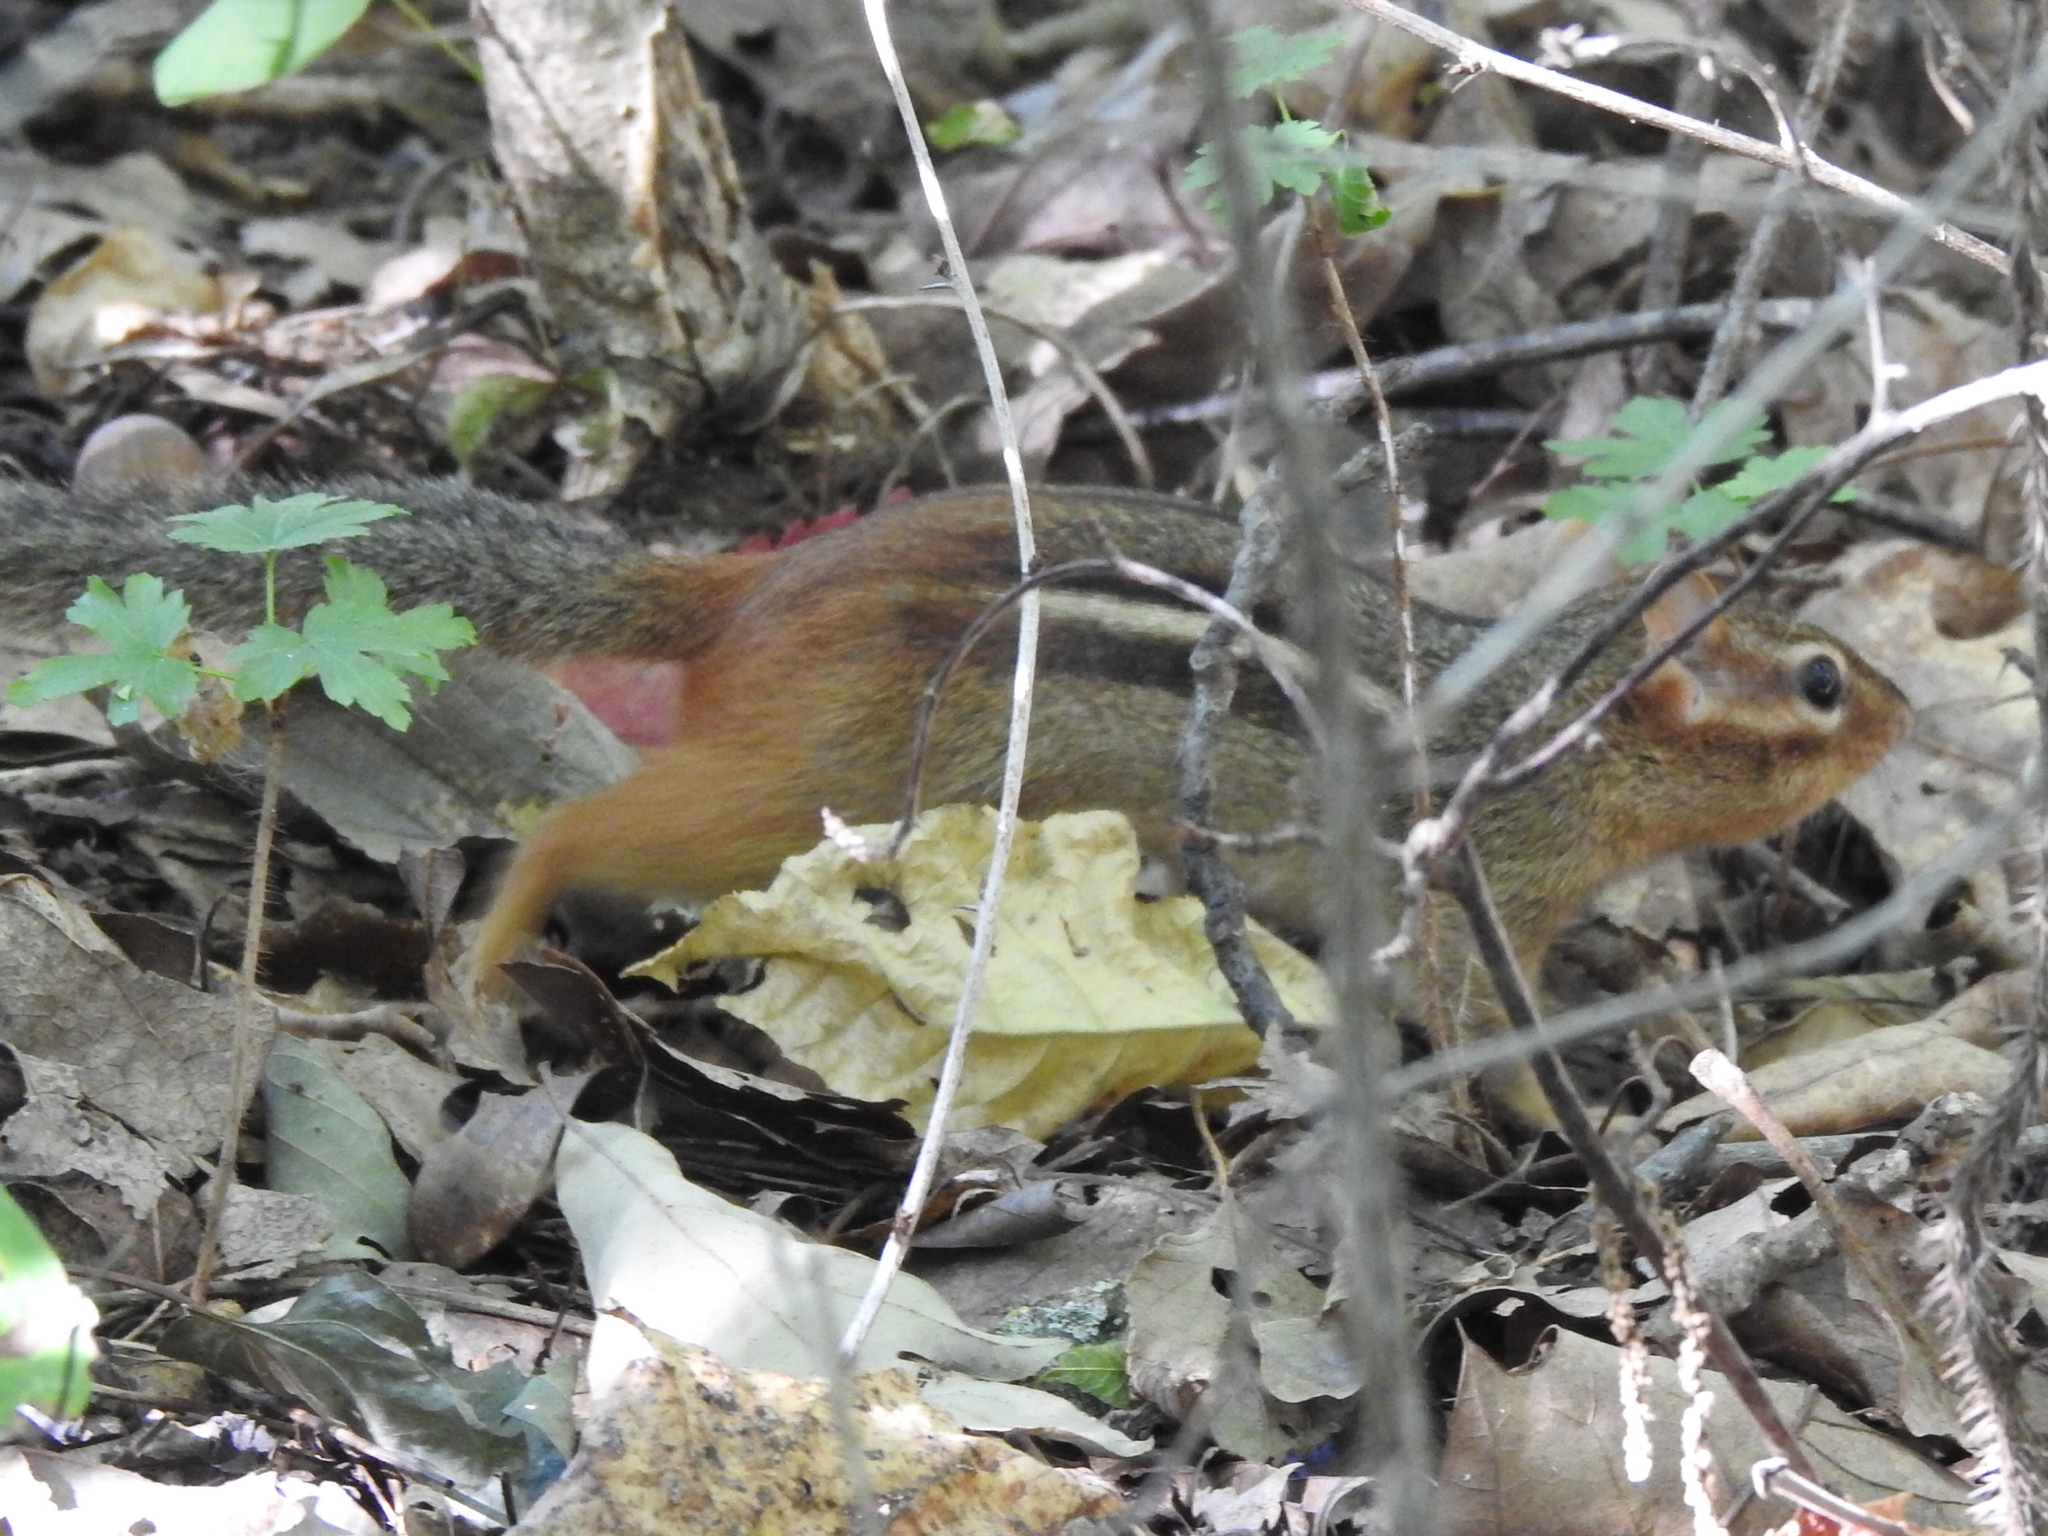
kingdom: Animalia
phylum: Chordata
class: Mammalia
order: Rodentia
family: Sciuridae
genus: Tamias
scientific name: Tamias striatus
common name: Eastern chipmunk
